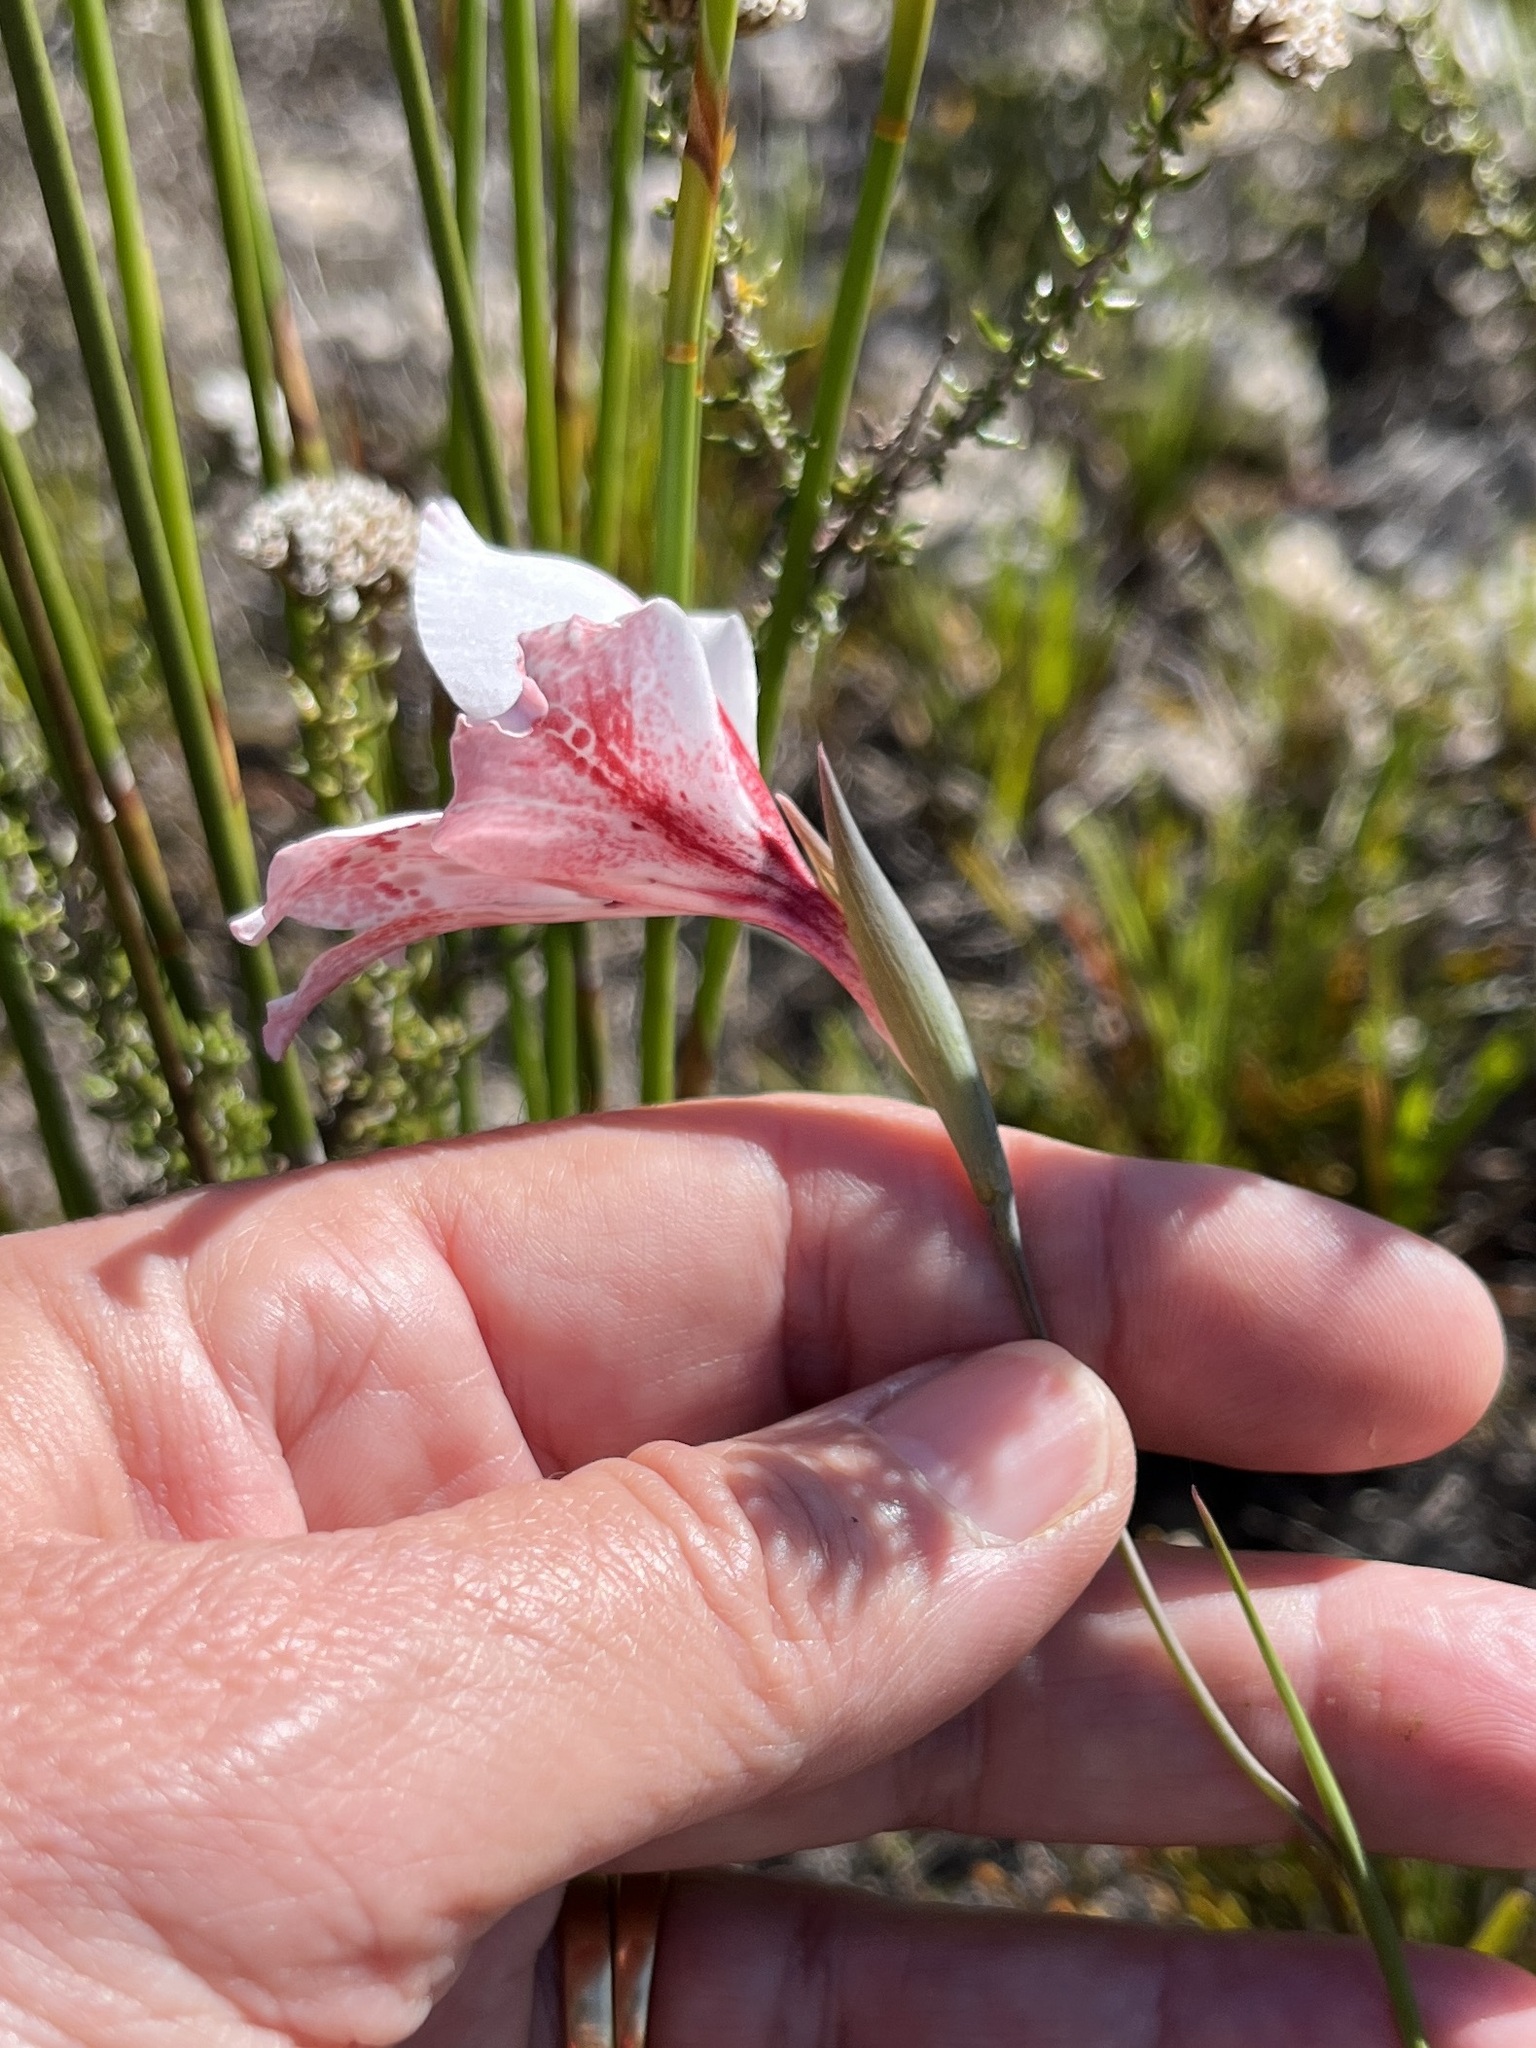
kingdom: Plantae
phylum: Tracheophyta
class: Liliopsida
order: Asparagales
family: Iridaceae
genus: Gladiolus
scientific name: Gladiolus variegatus
